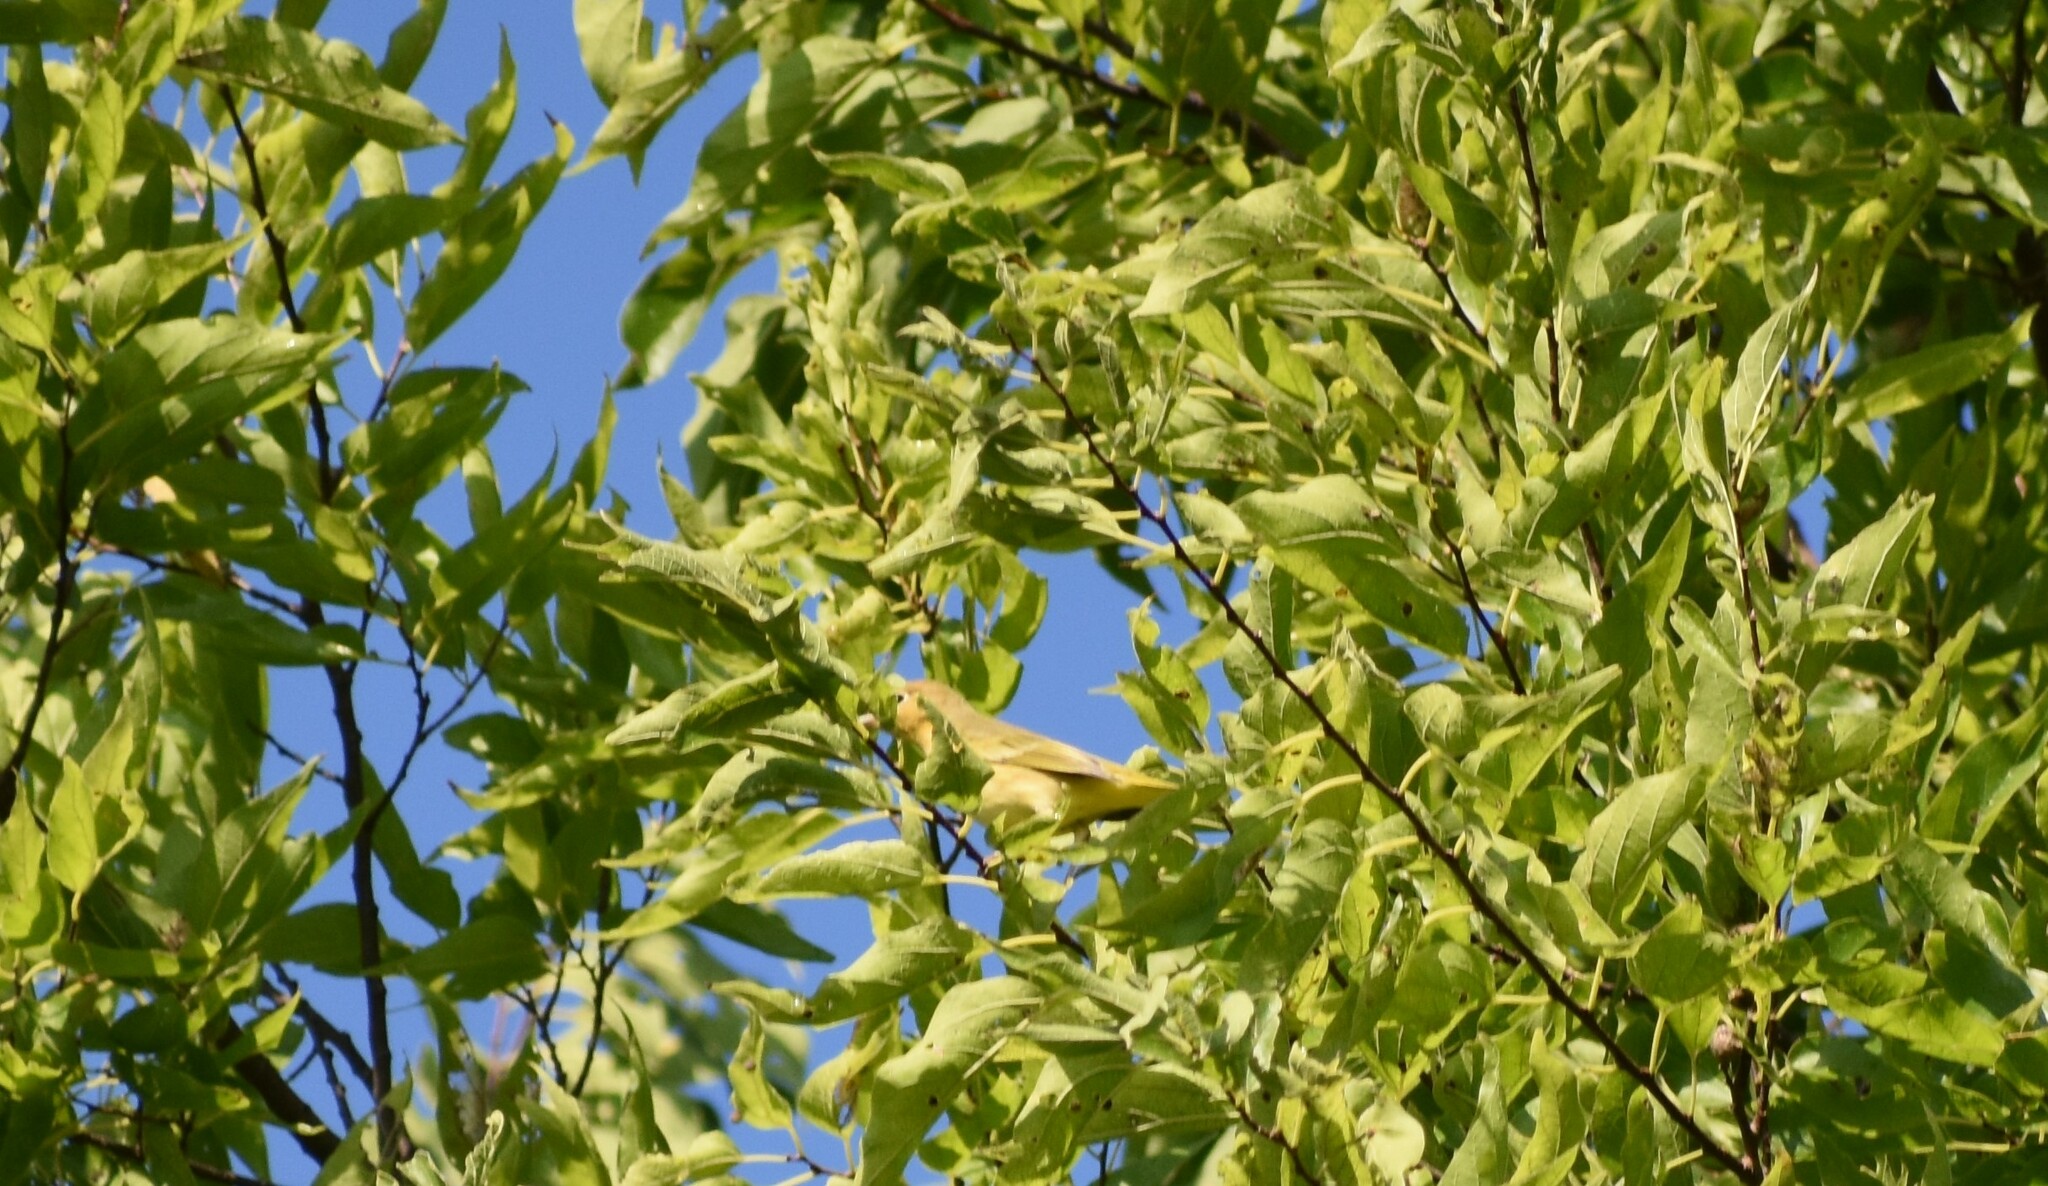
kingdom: Animalia
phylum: Chordata
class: Aves
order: Passeriformes
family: Parulidae
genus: Setophaga
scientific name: Setophaga petechia
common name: Yellow warbler
